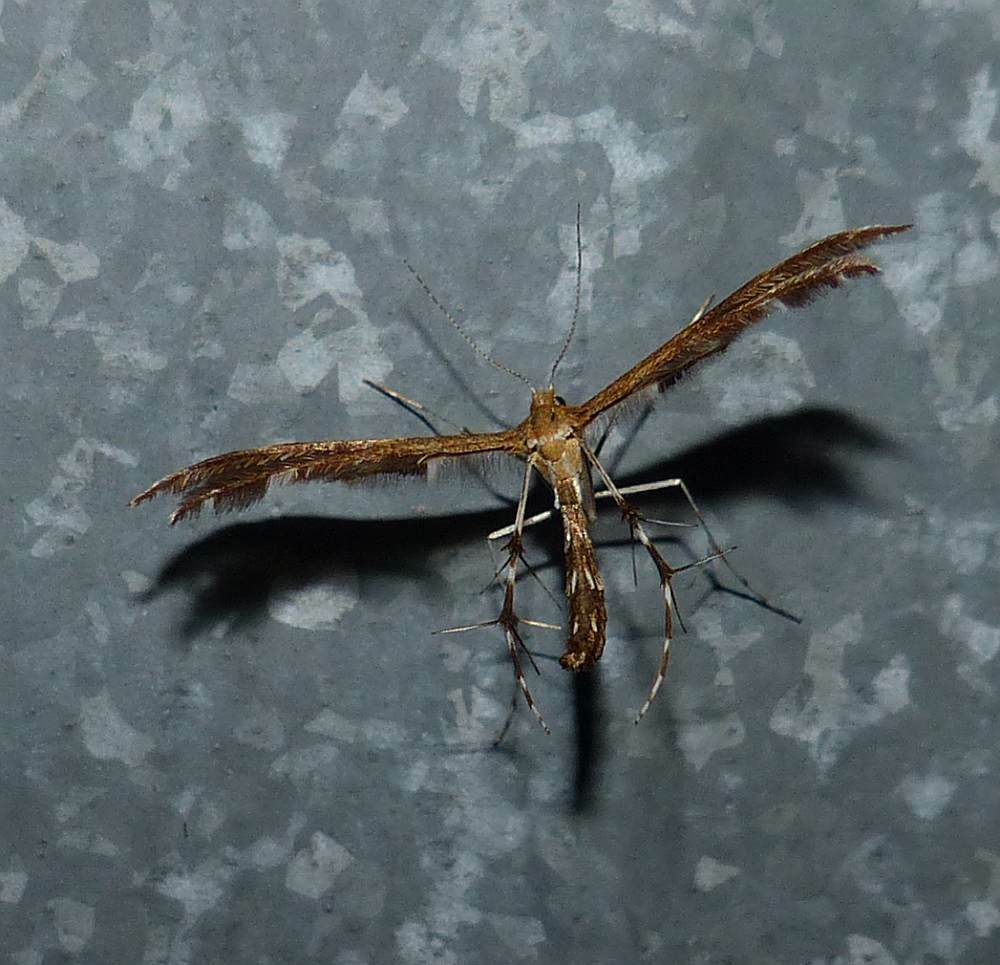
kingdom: Animalia
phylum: Arthropoda
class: Insecta
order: Lepidoptera
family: Pterophoridae
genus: Dejongia
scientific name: Dejongia lobidactylus
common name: Lobed plume moth
